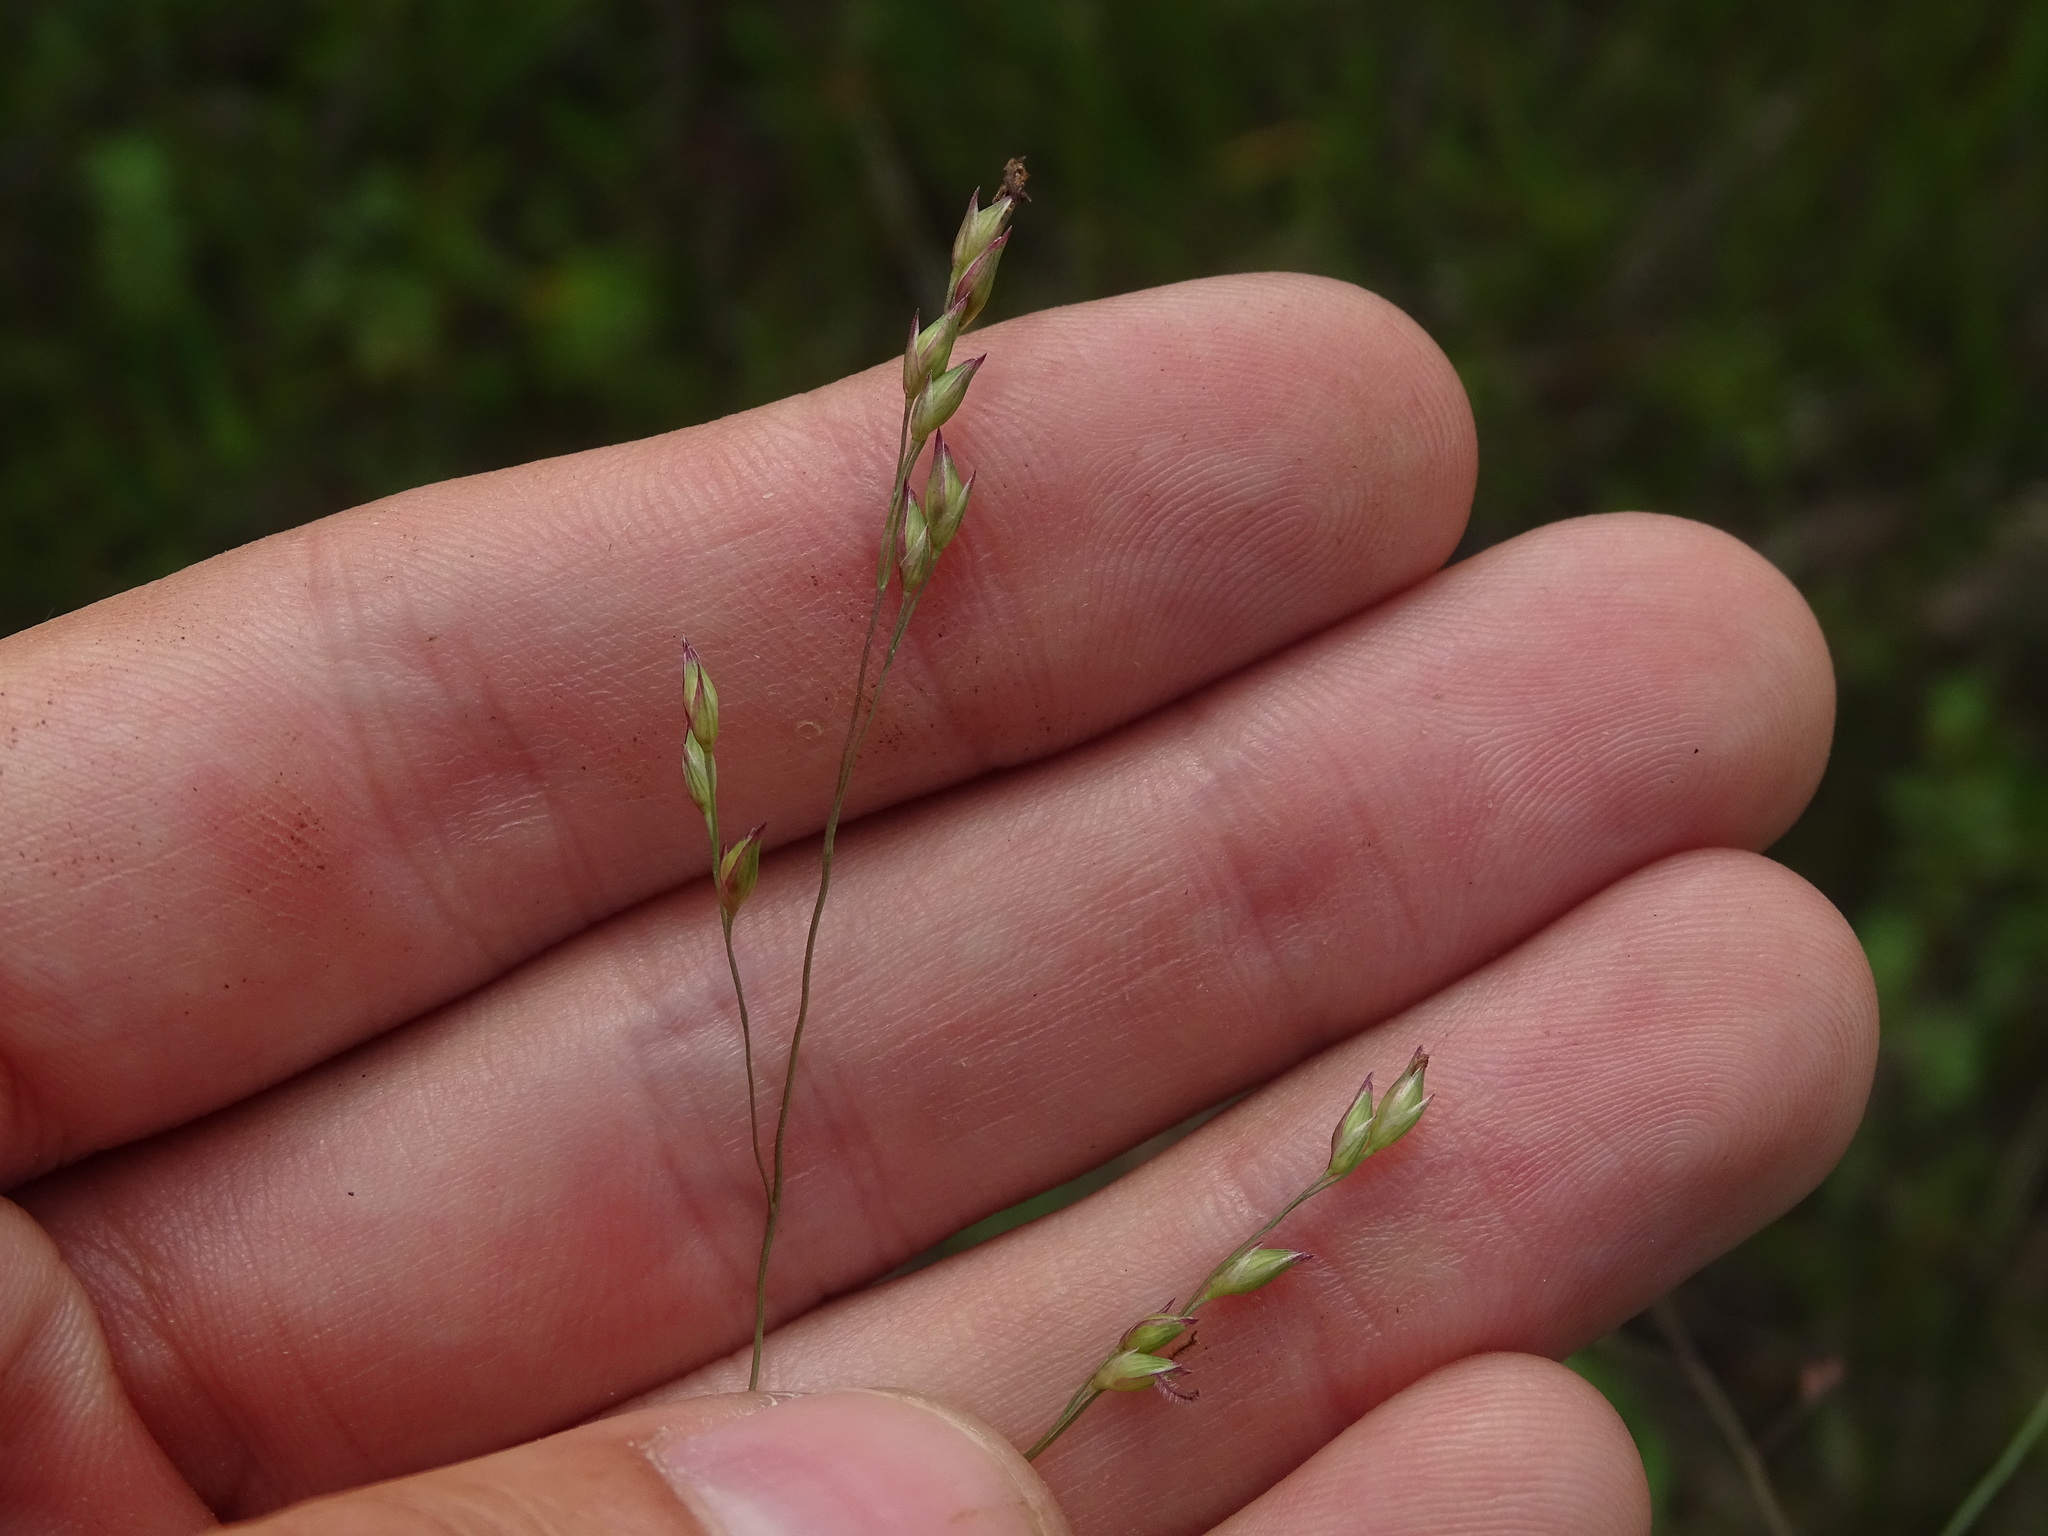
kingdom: Plantae
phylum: Tracheophyta
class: Liliopsida
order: Poales
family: Poaceae
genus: Panicum
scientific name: Panicum virgatum
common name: Switchgrass
